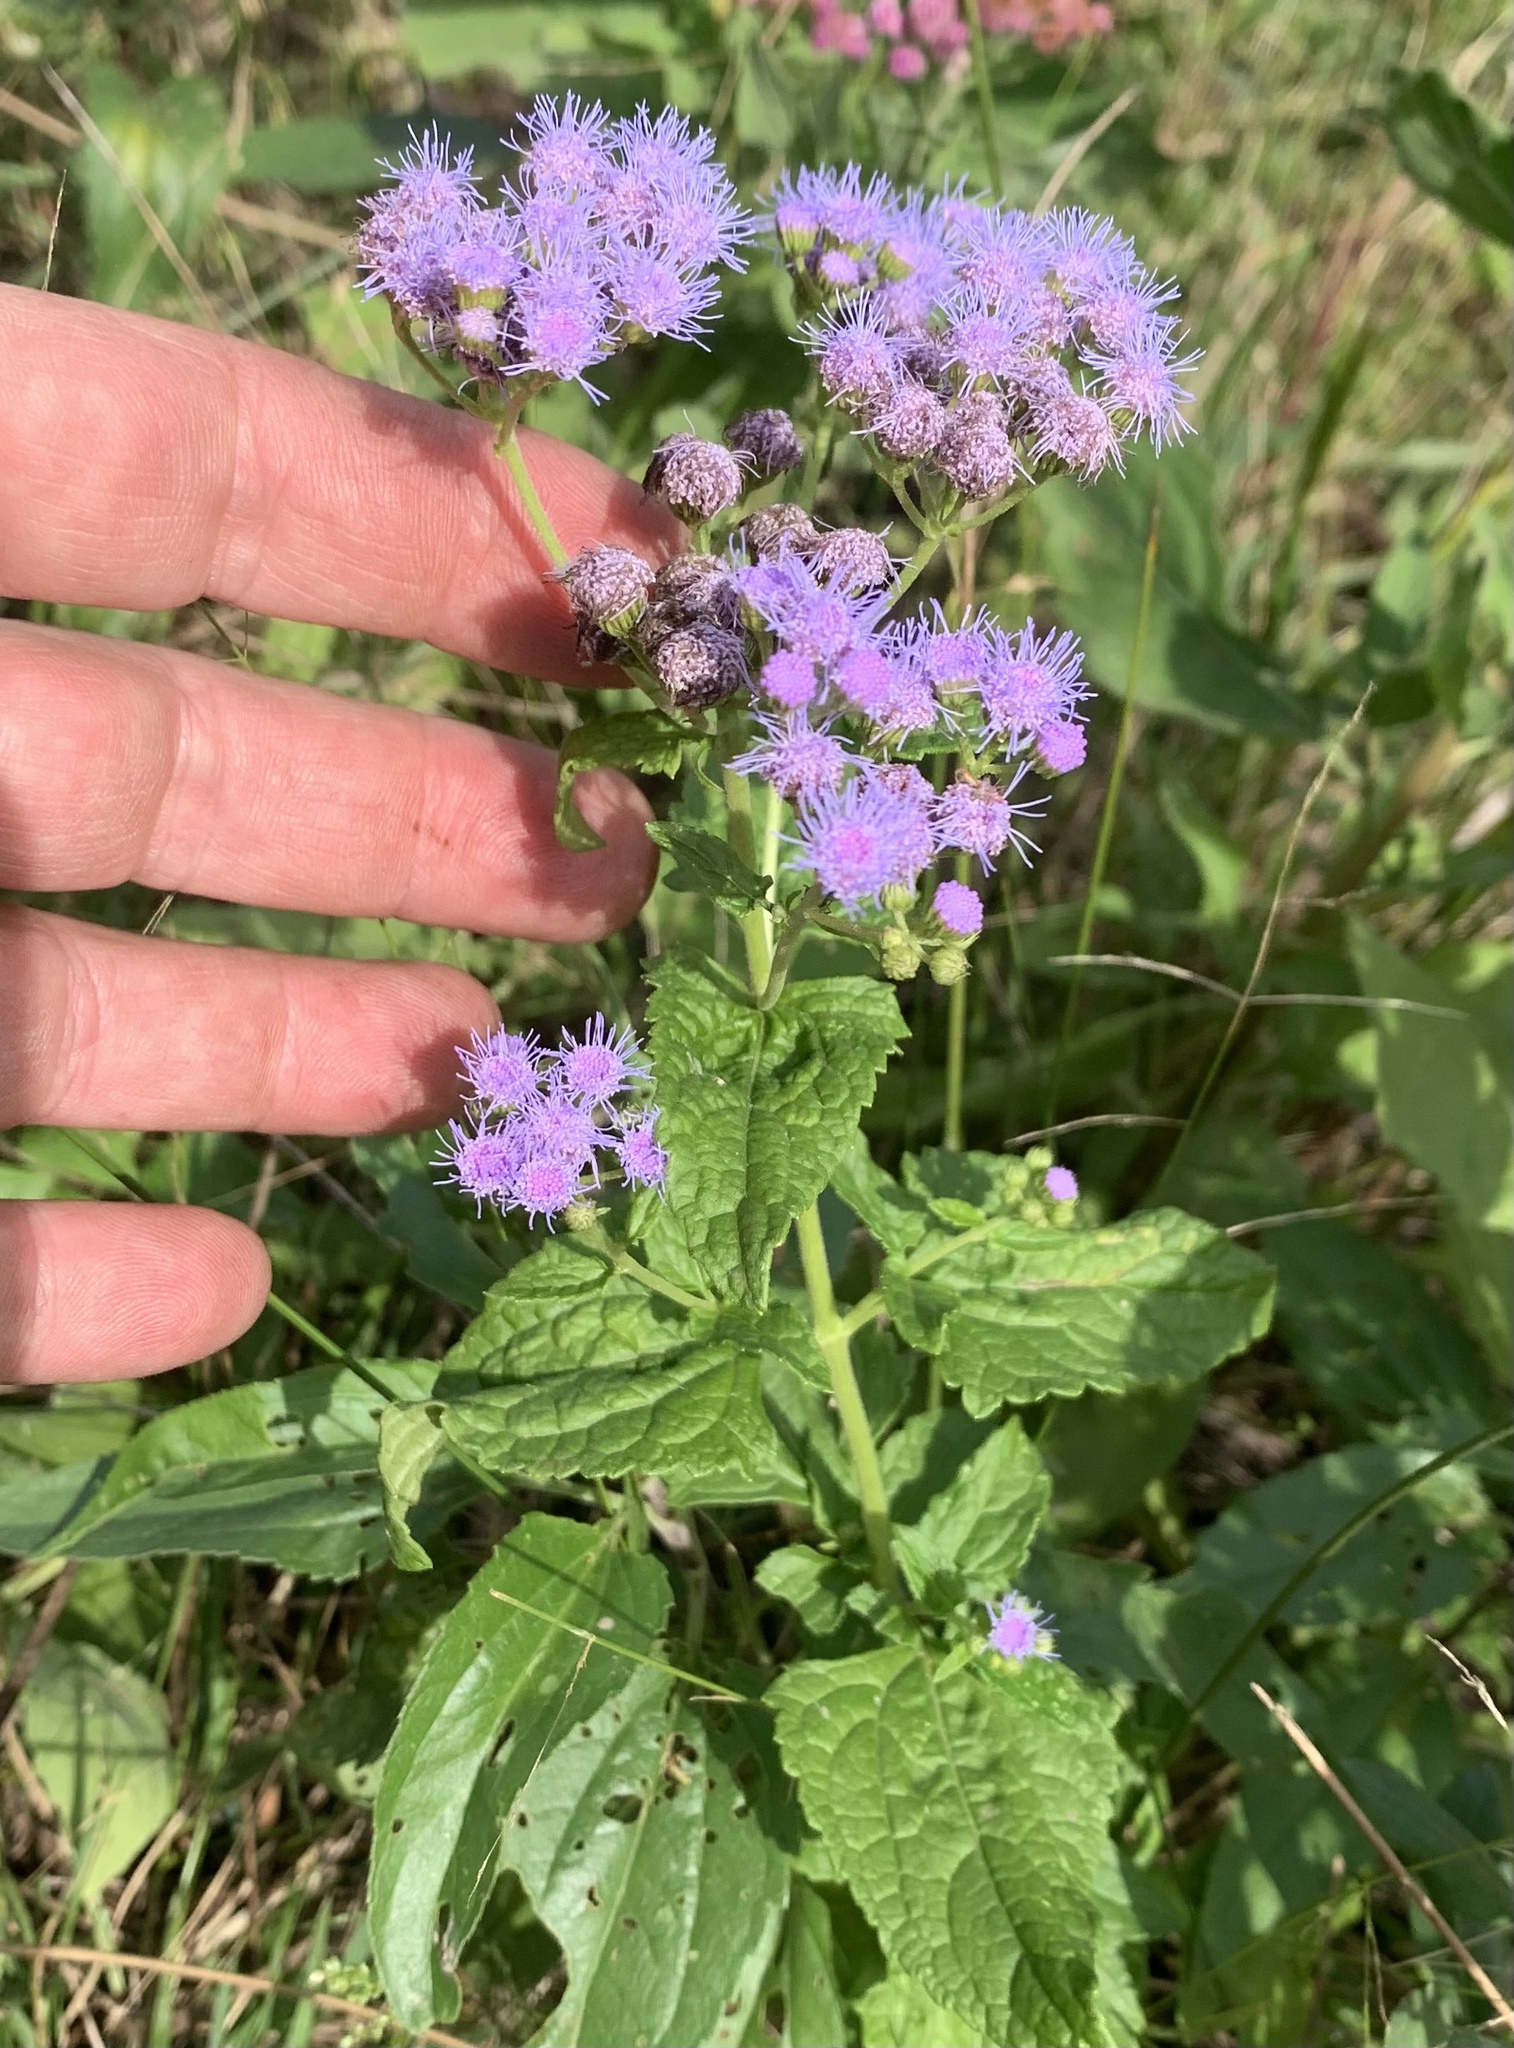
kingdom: Plantae
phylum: Tracheophyta
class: Magnoliopsida
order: Asterales
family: Asteraceae
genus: Conoclinium
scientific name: Conoclinium coelestinum
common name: Blue mistflower
